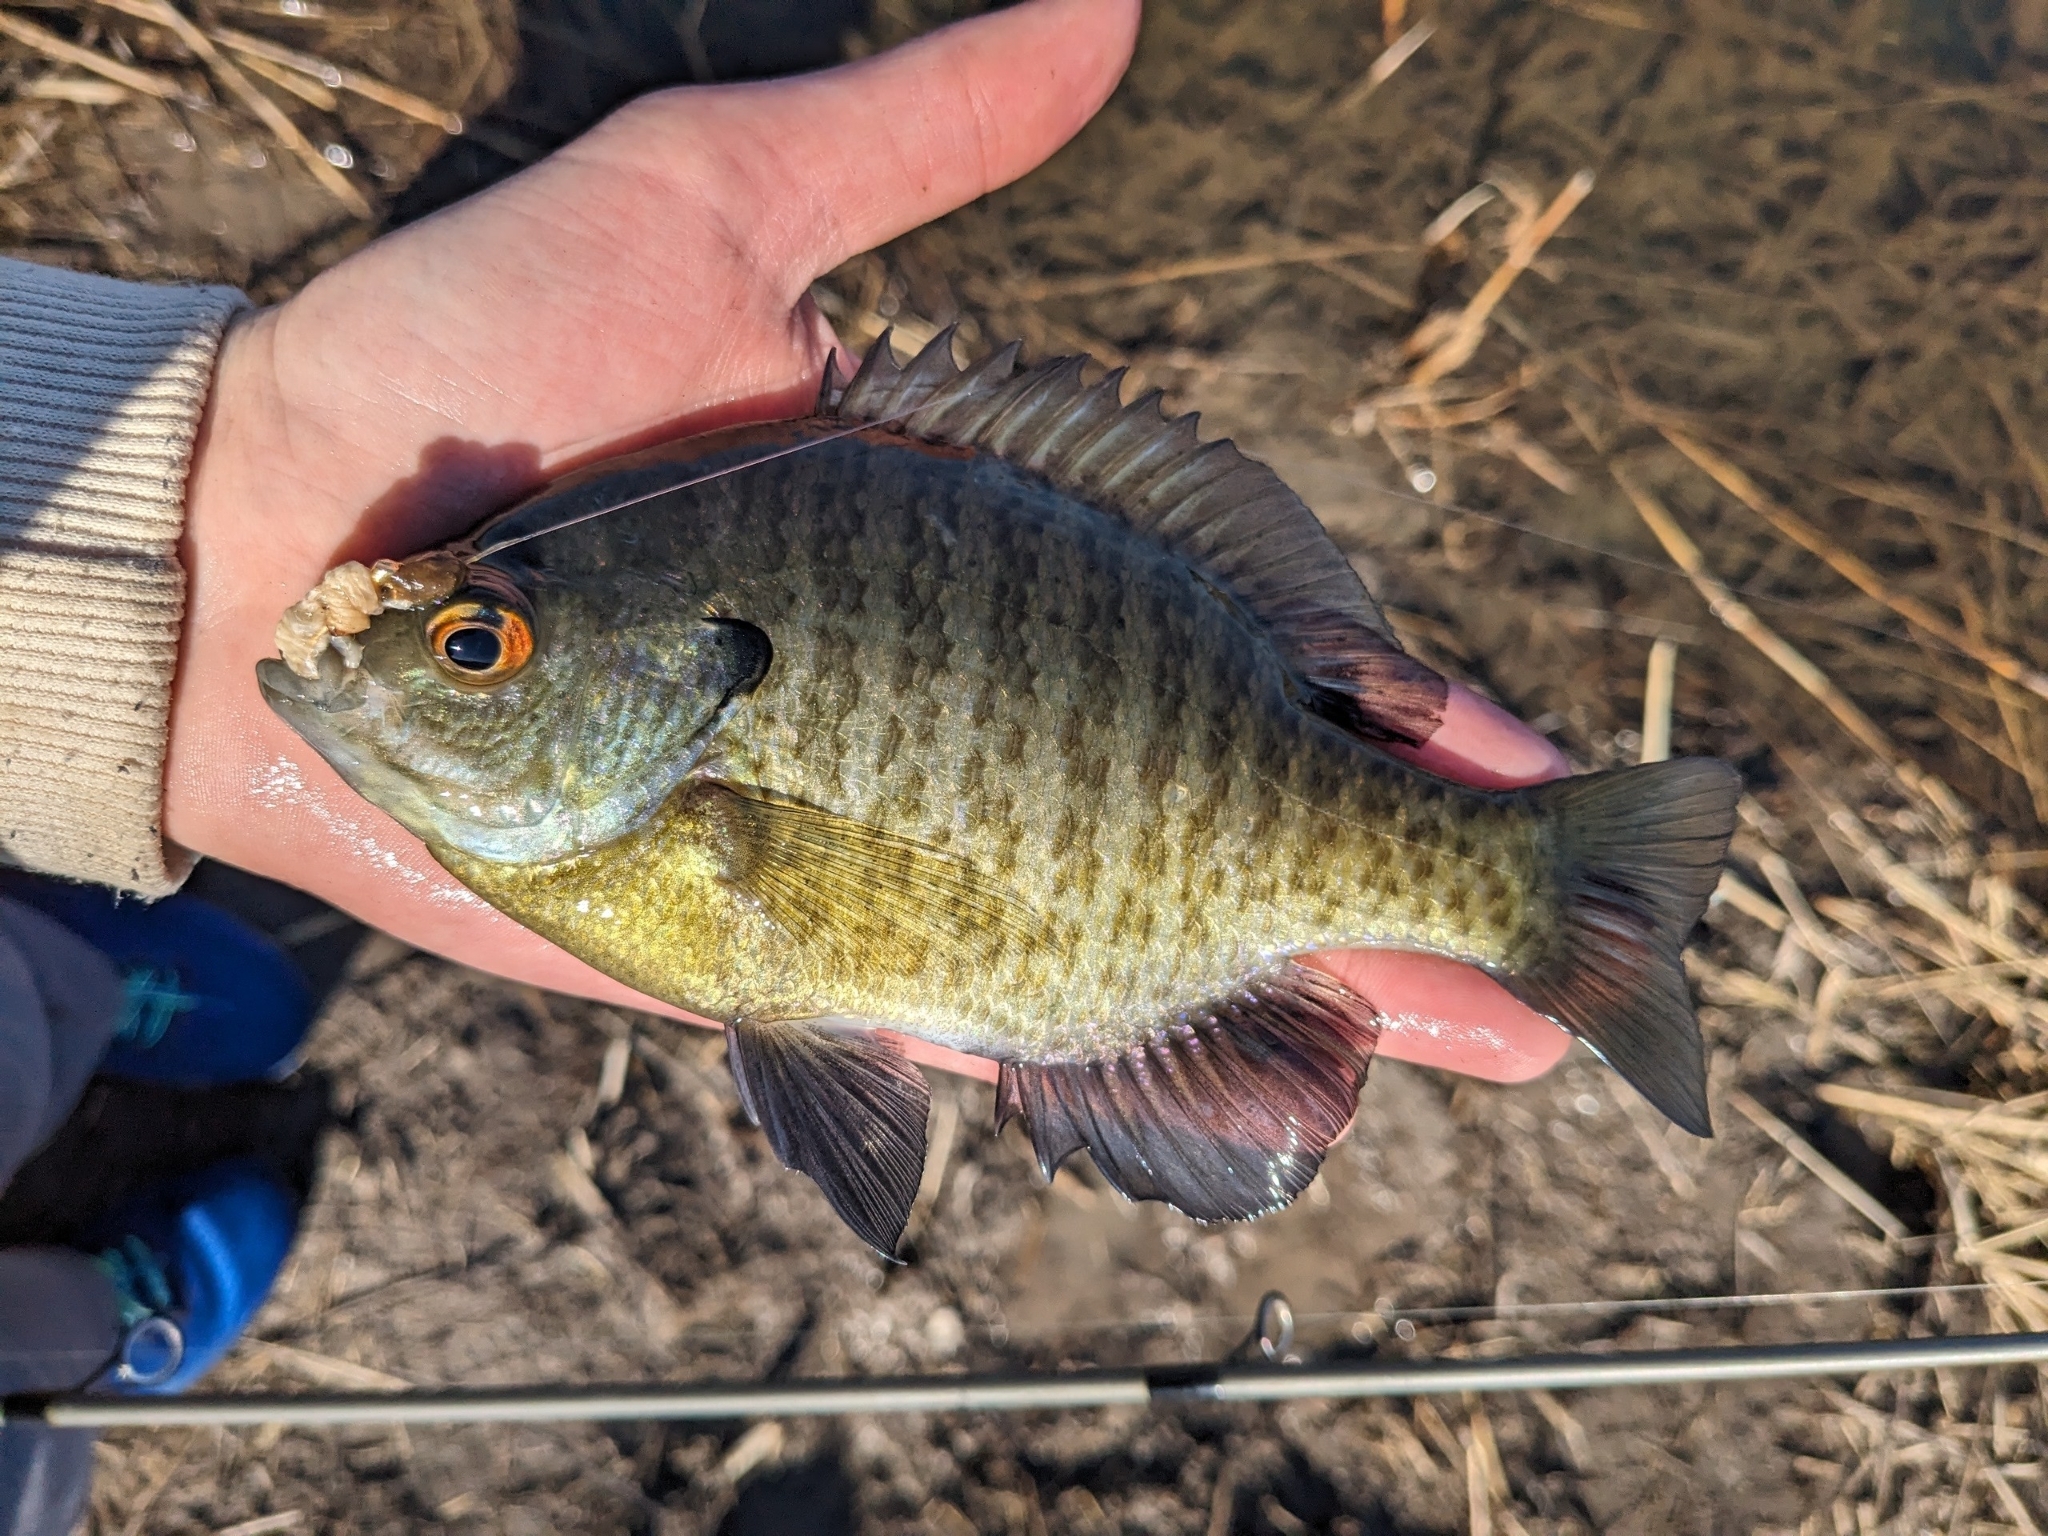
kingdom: Animalia
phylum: Chordata
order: Perciformes
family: Centrarchidae
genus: Lepomis
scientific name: Lepomis macrochirus
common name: Bluegill
